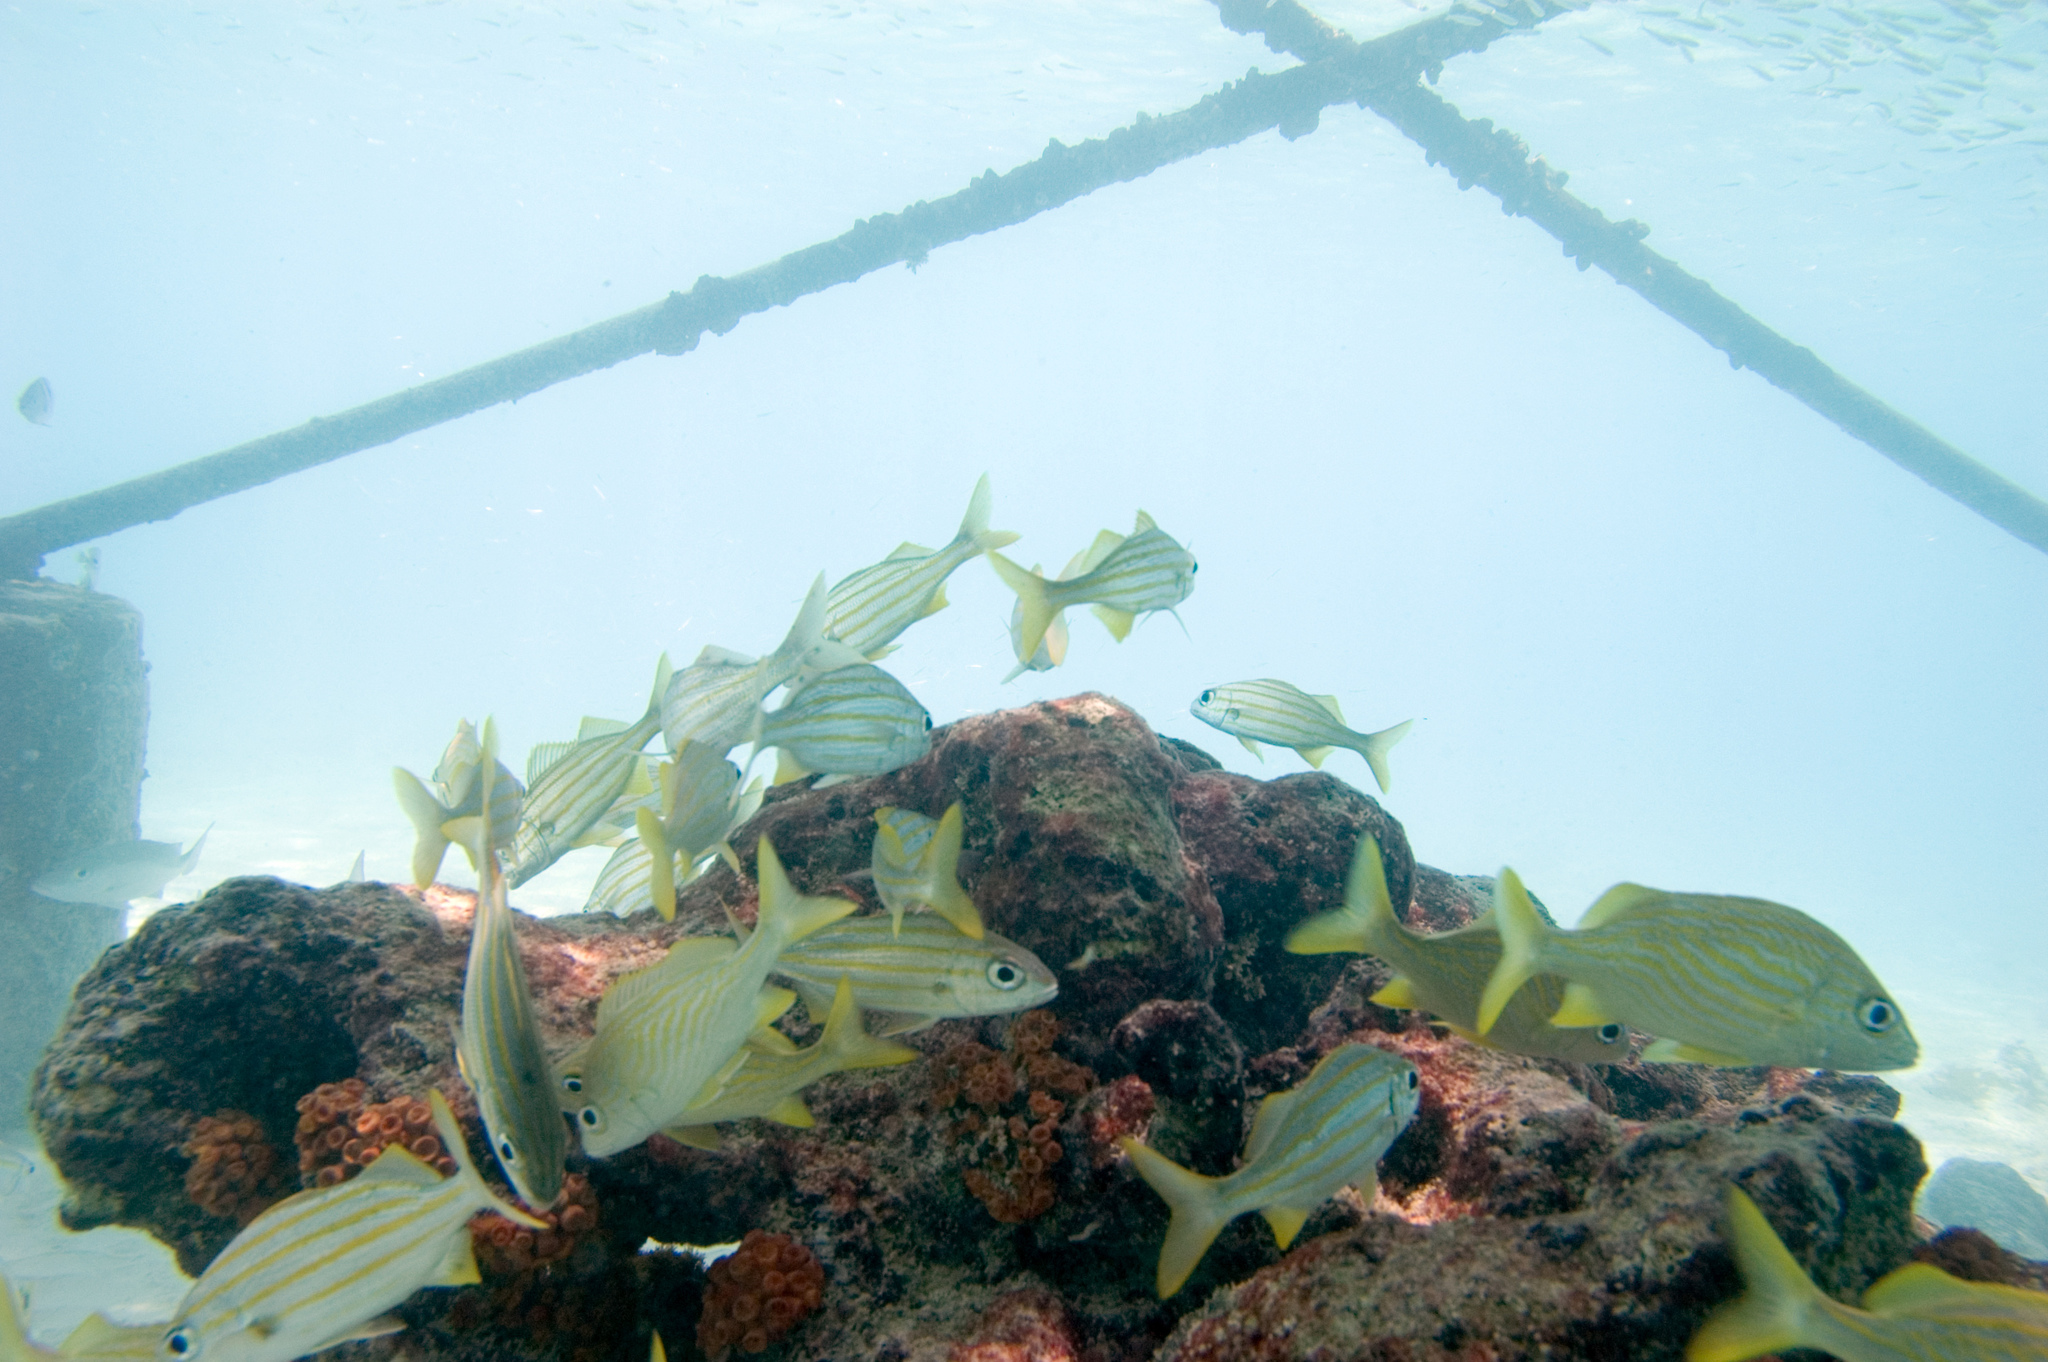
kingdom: Animalia
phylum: Chordata
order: Perciformes
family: Haemulidae
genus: Haemulon
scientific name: Haemulon flavolineatum
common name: French grunt
